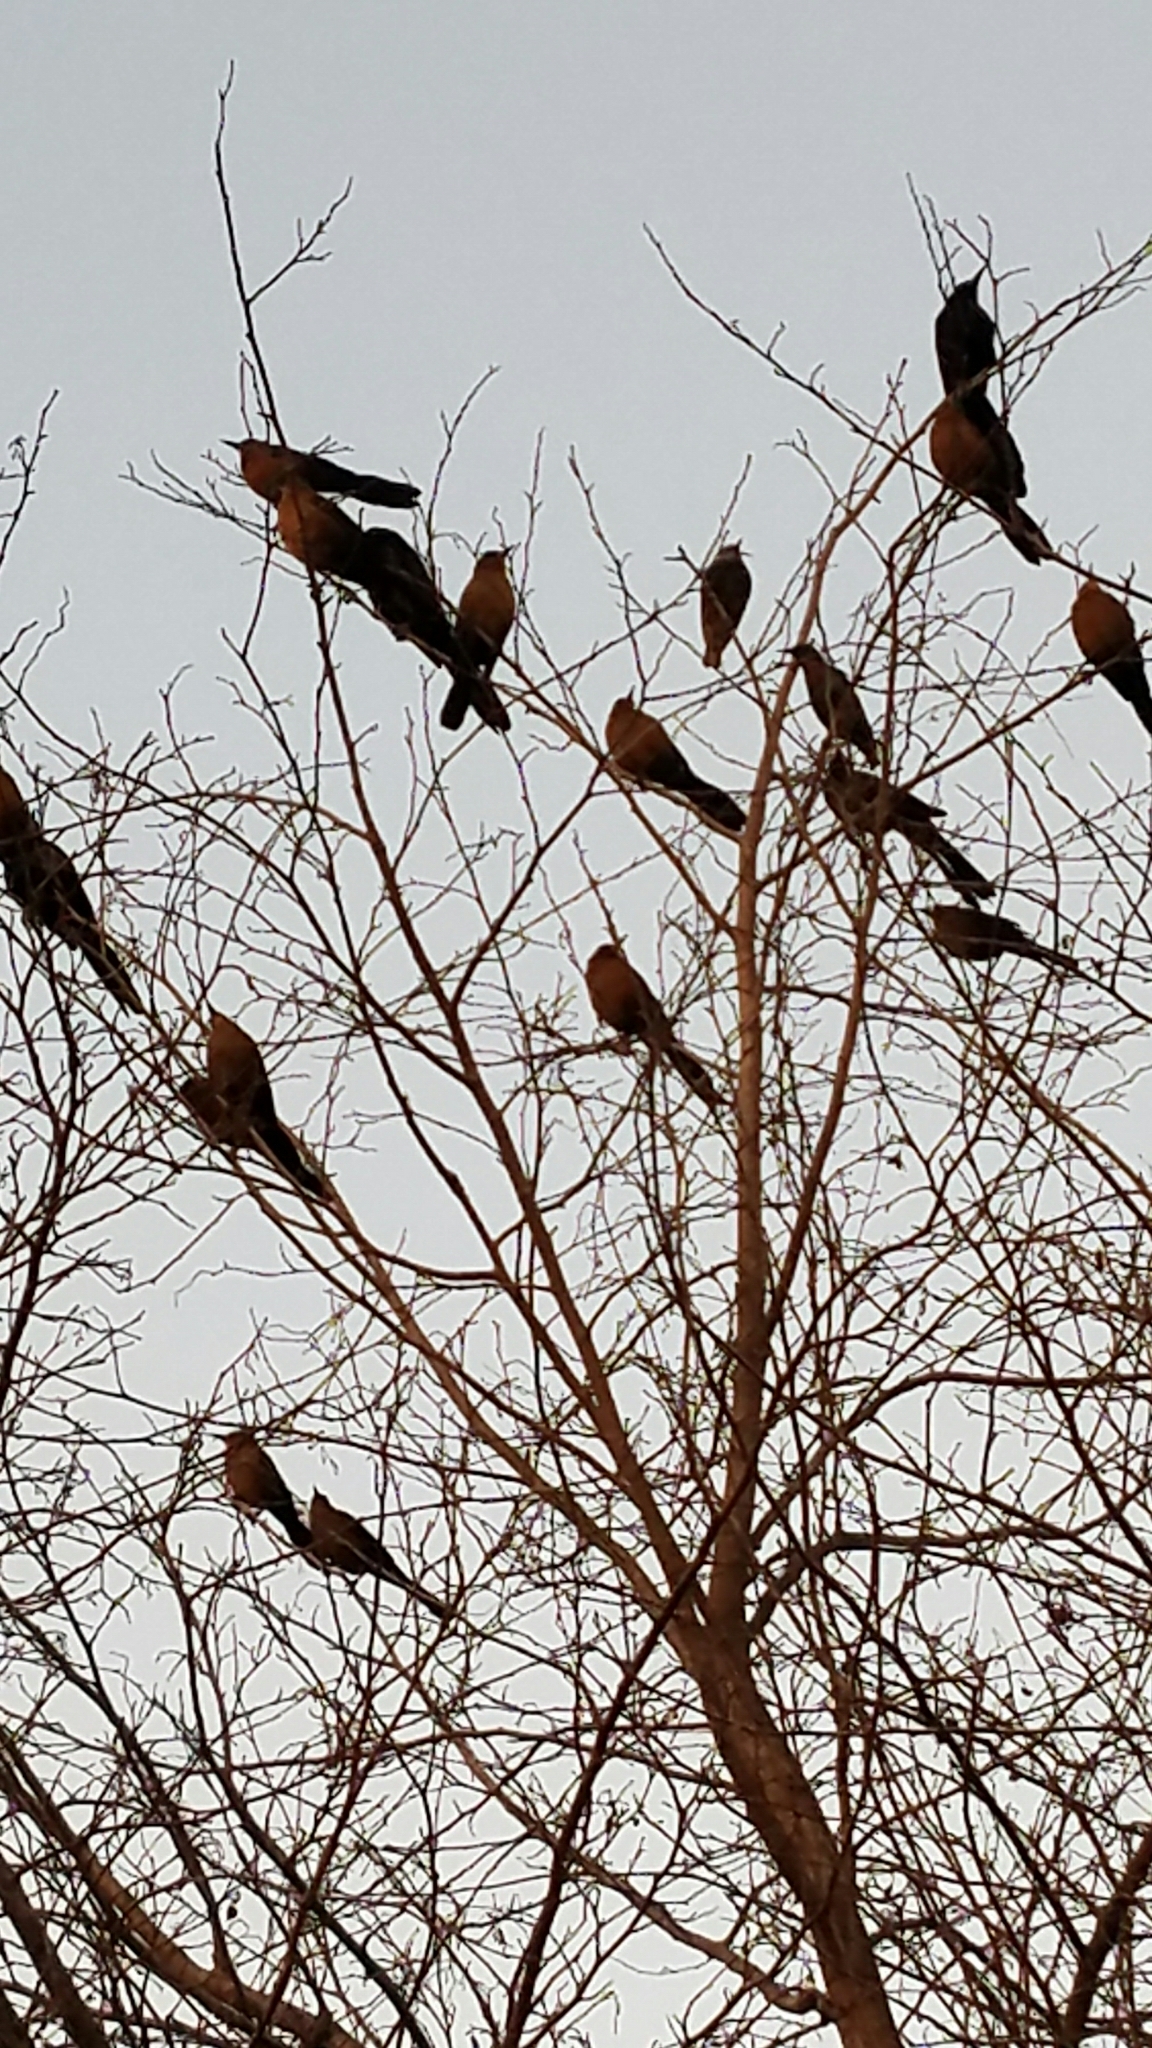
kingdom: Animalia
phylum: Chordata
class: Aves
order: Passeriformes
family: Icteridae
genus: Quiscalus
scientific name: Quiscalus mexicanus
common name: Great-tailed grackle
